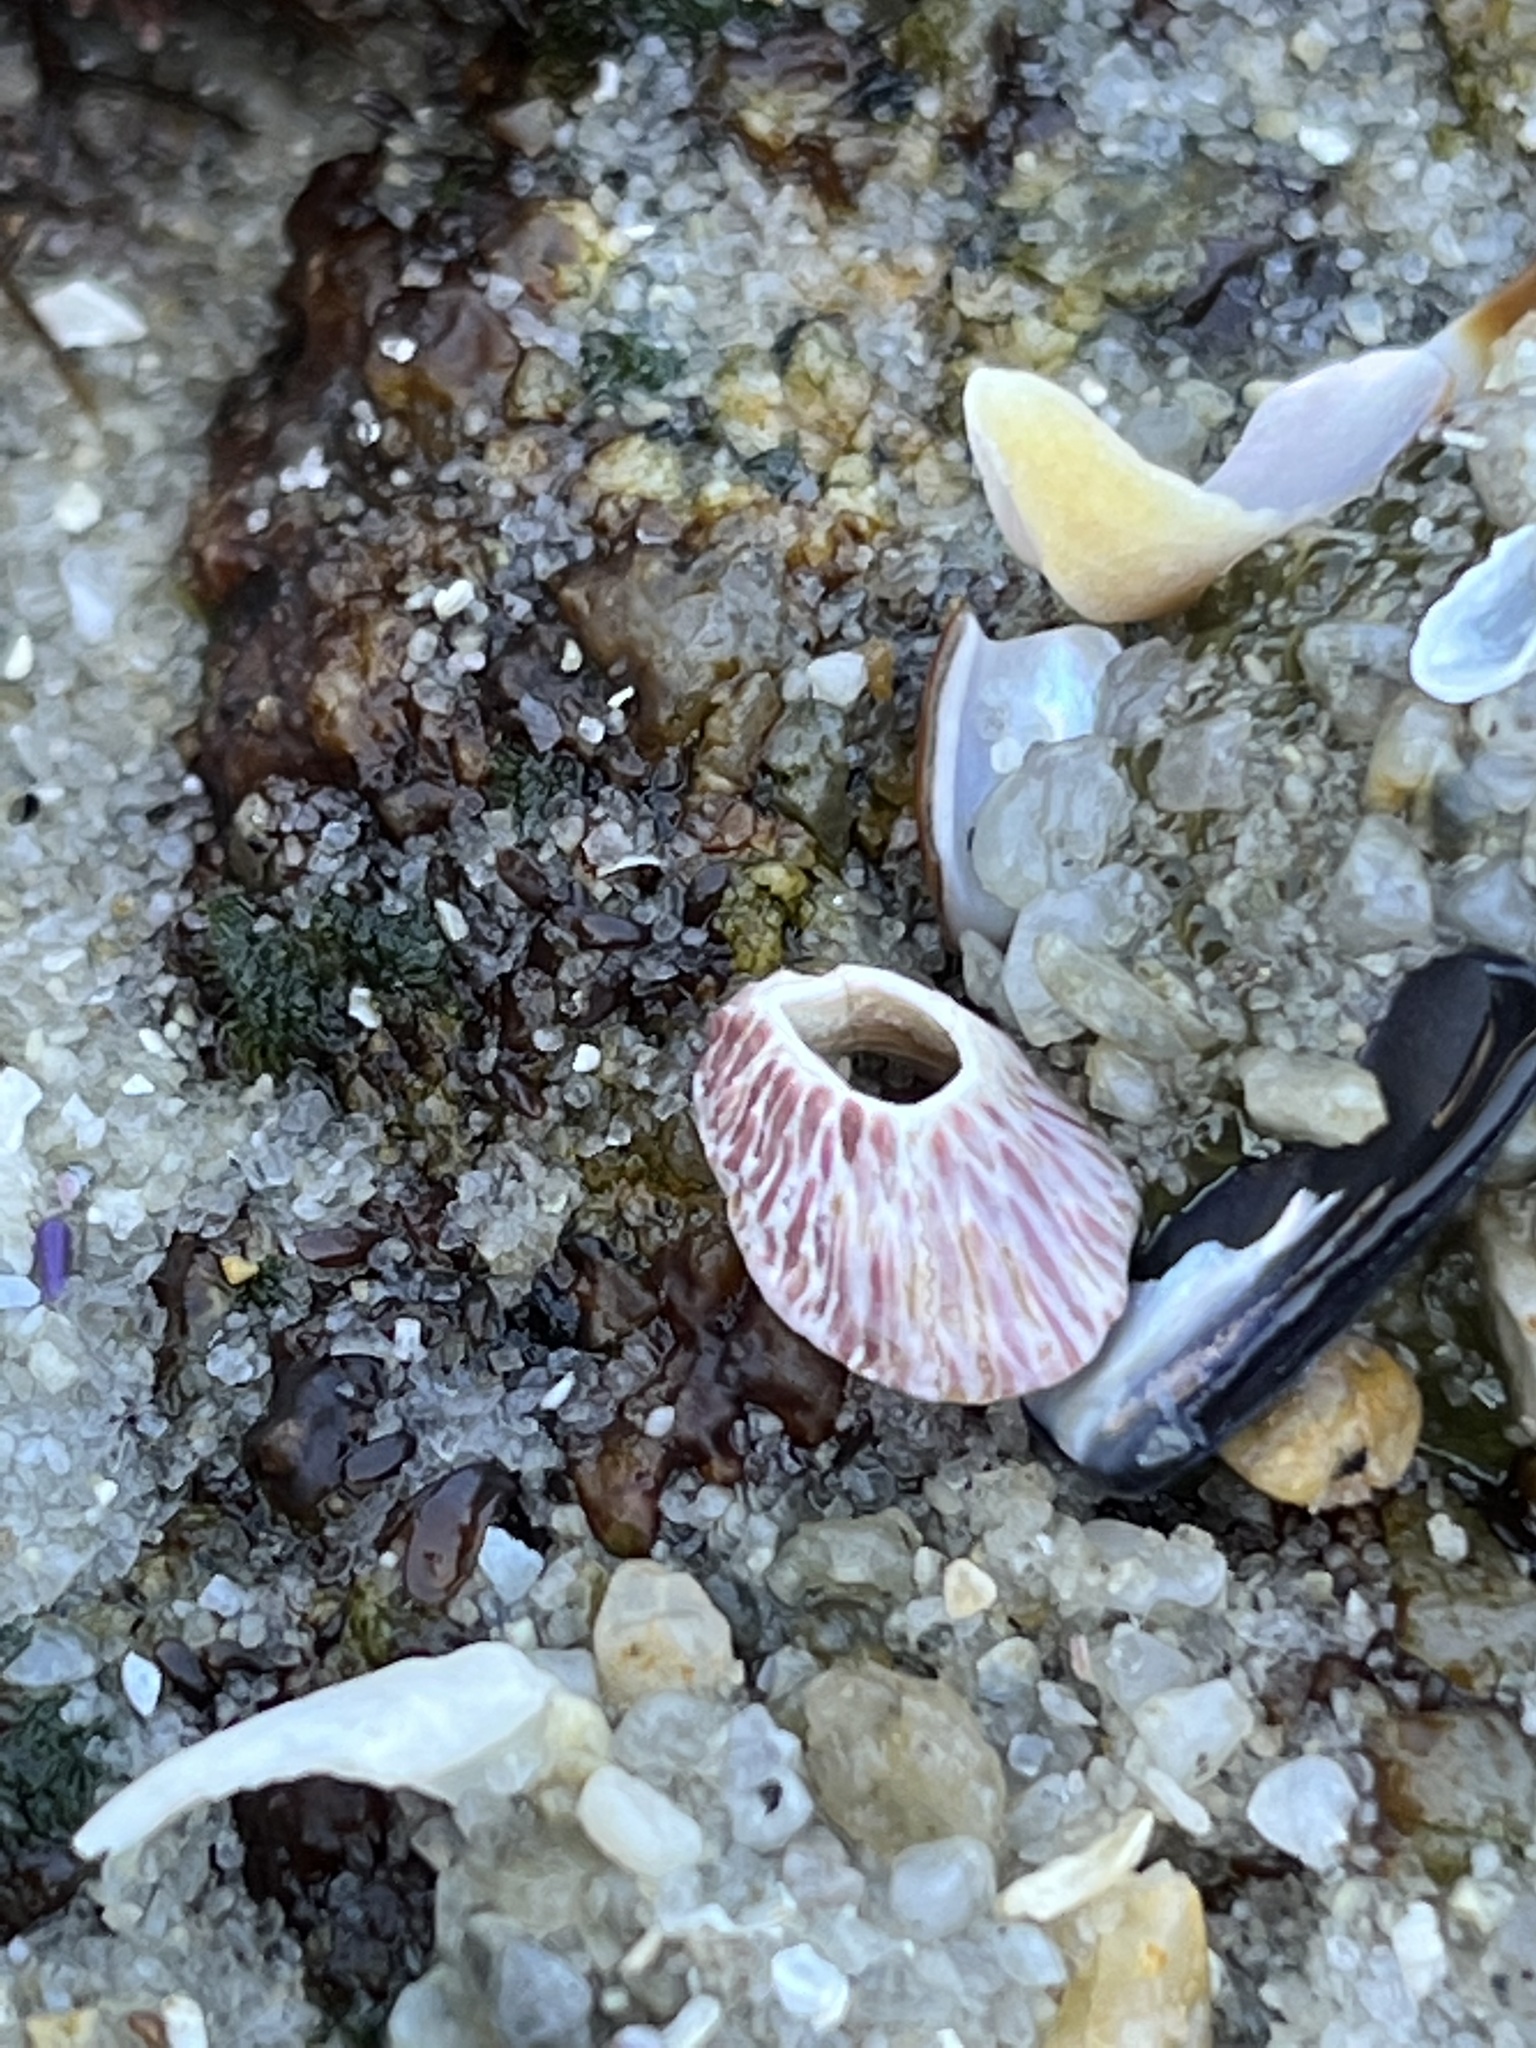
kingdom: Animalia
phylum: Arthropoda
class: Maxillopoda
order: Sessilia
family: Tetraclitidae
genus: Tetraclita
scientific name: Tetraclita rubescens
